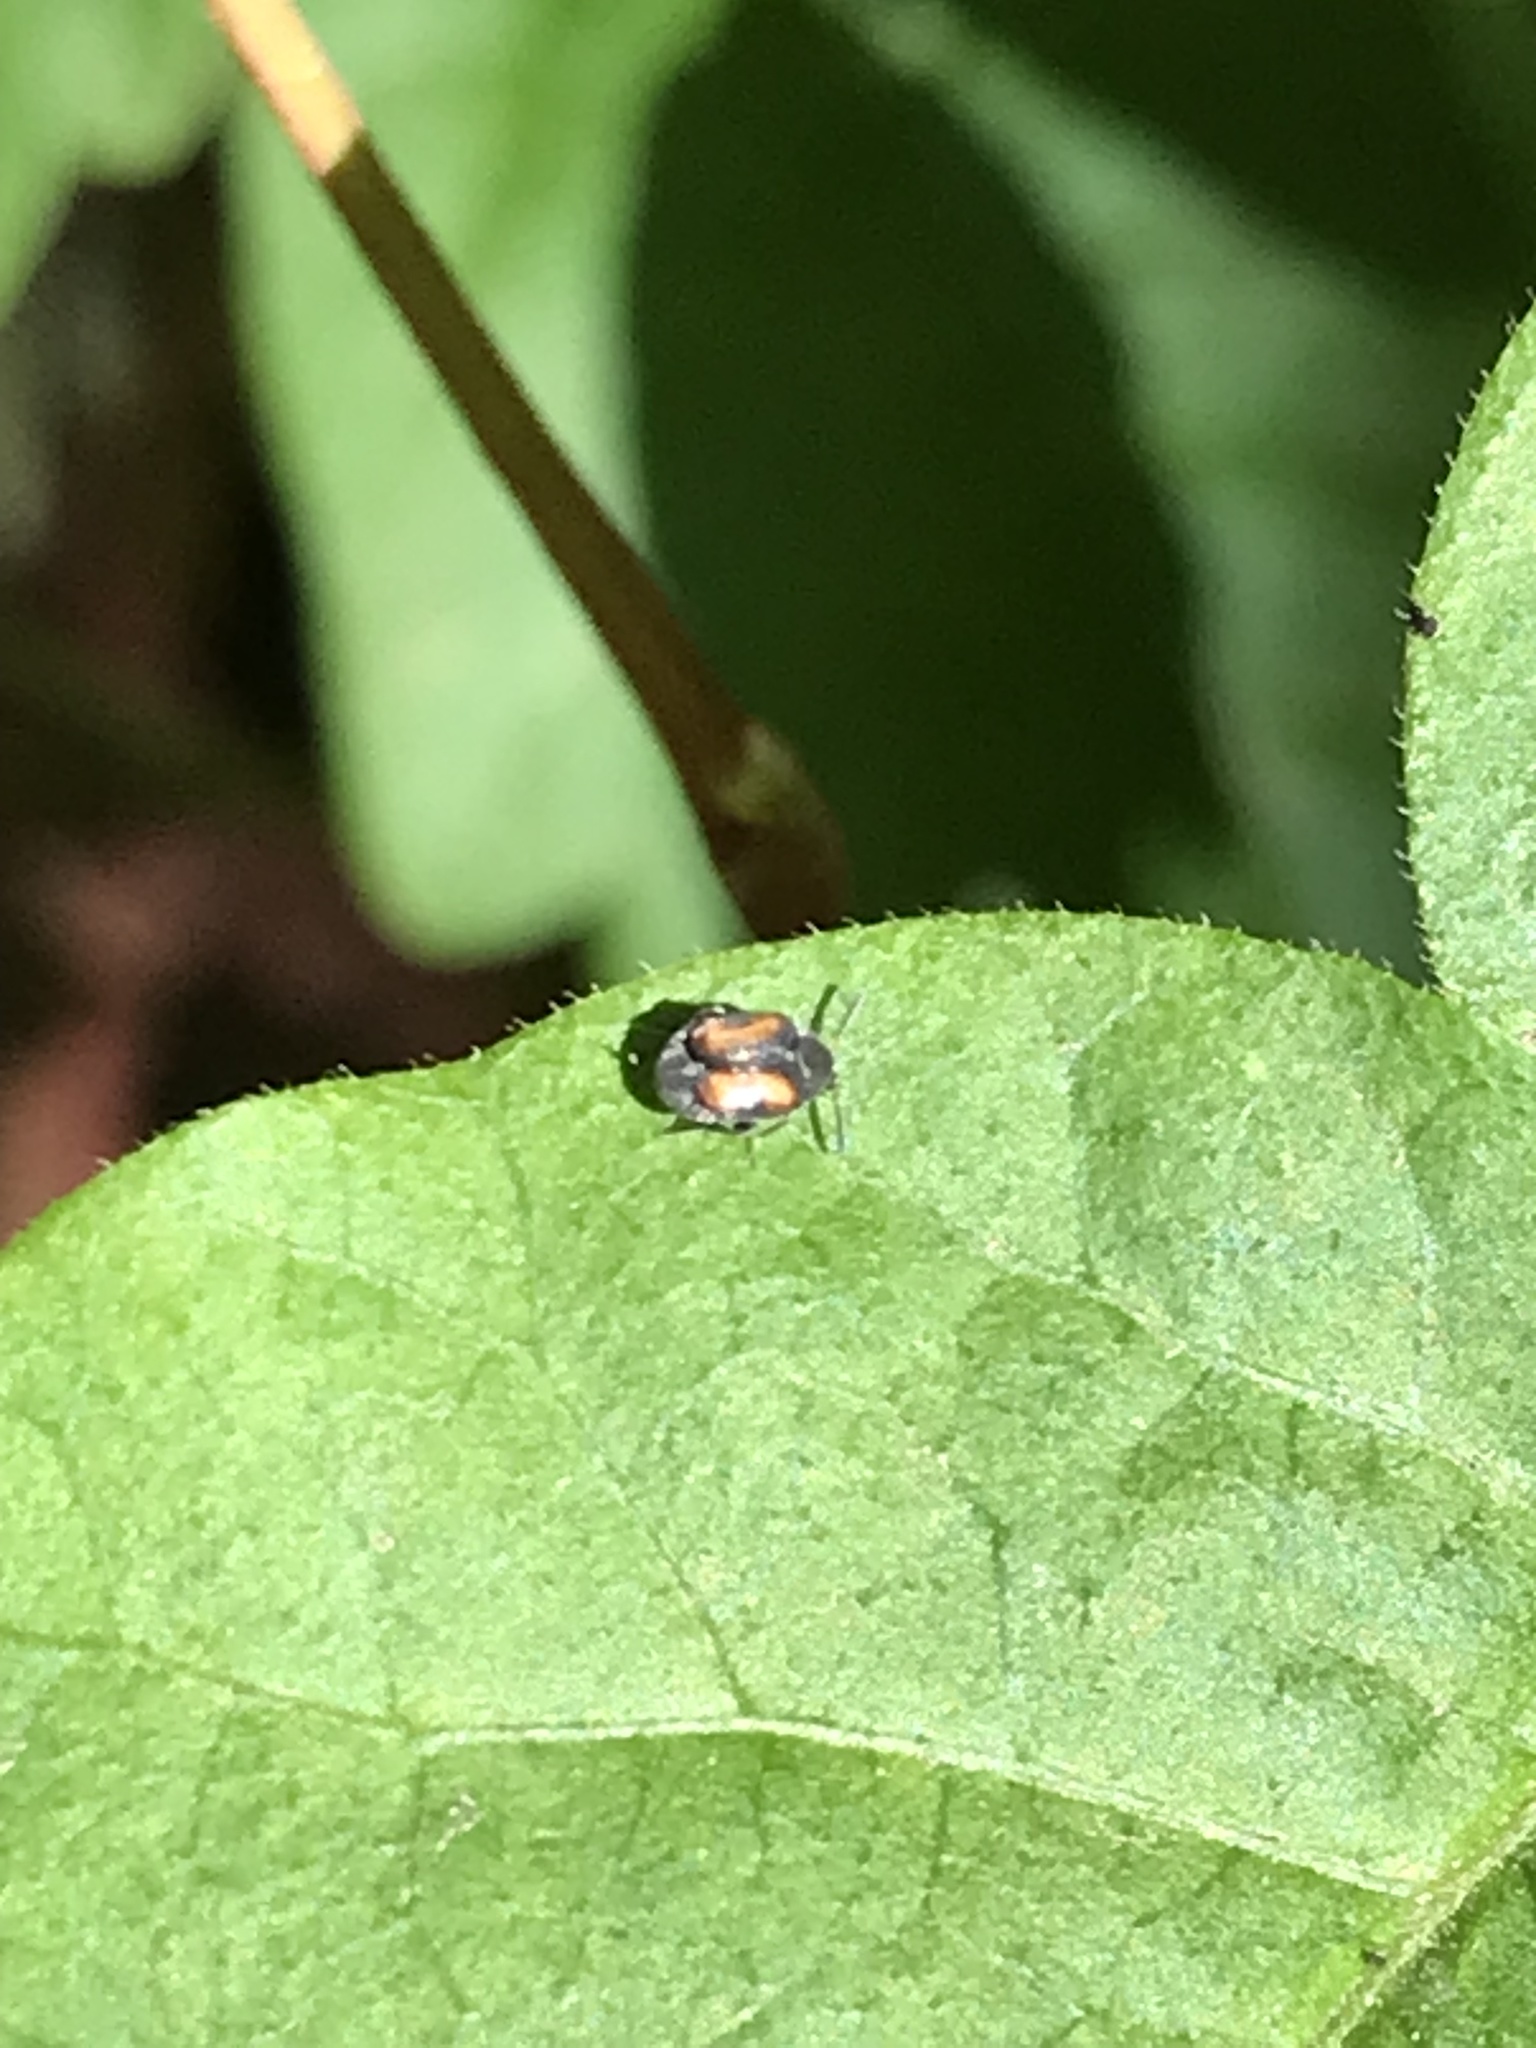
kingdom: Animalia
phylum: Arthropoda
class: Insecta
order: Coleoptera
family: Chrysomelidae
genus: Stator
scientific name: Stator limbatus
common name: Leaf beetle
